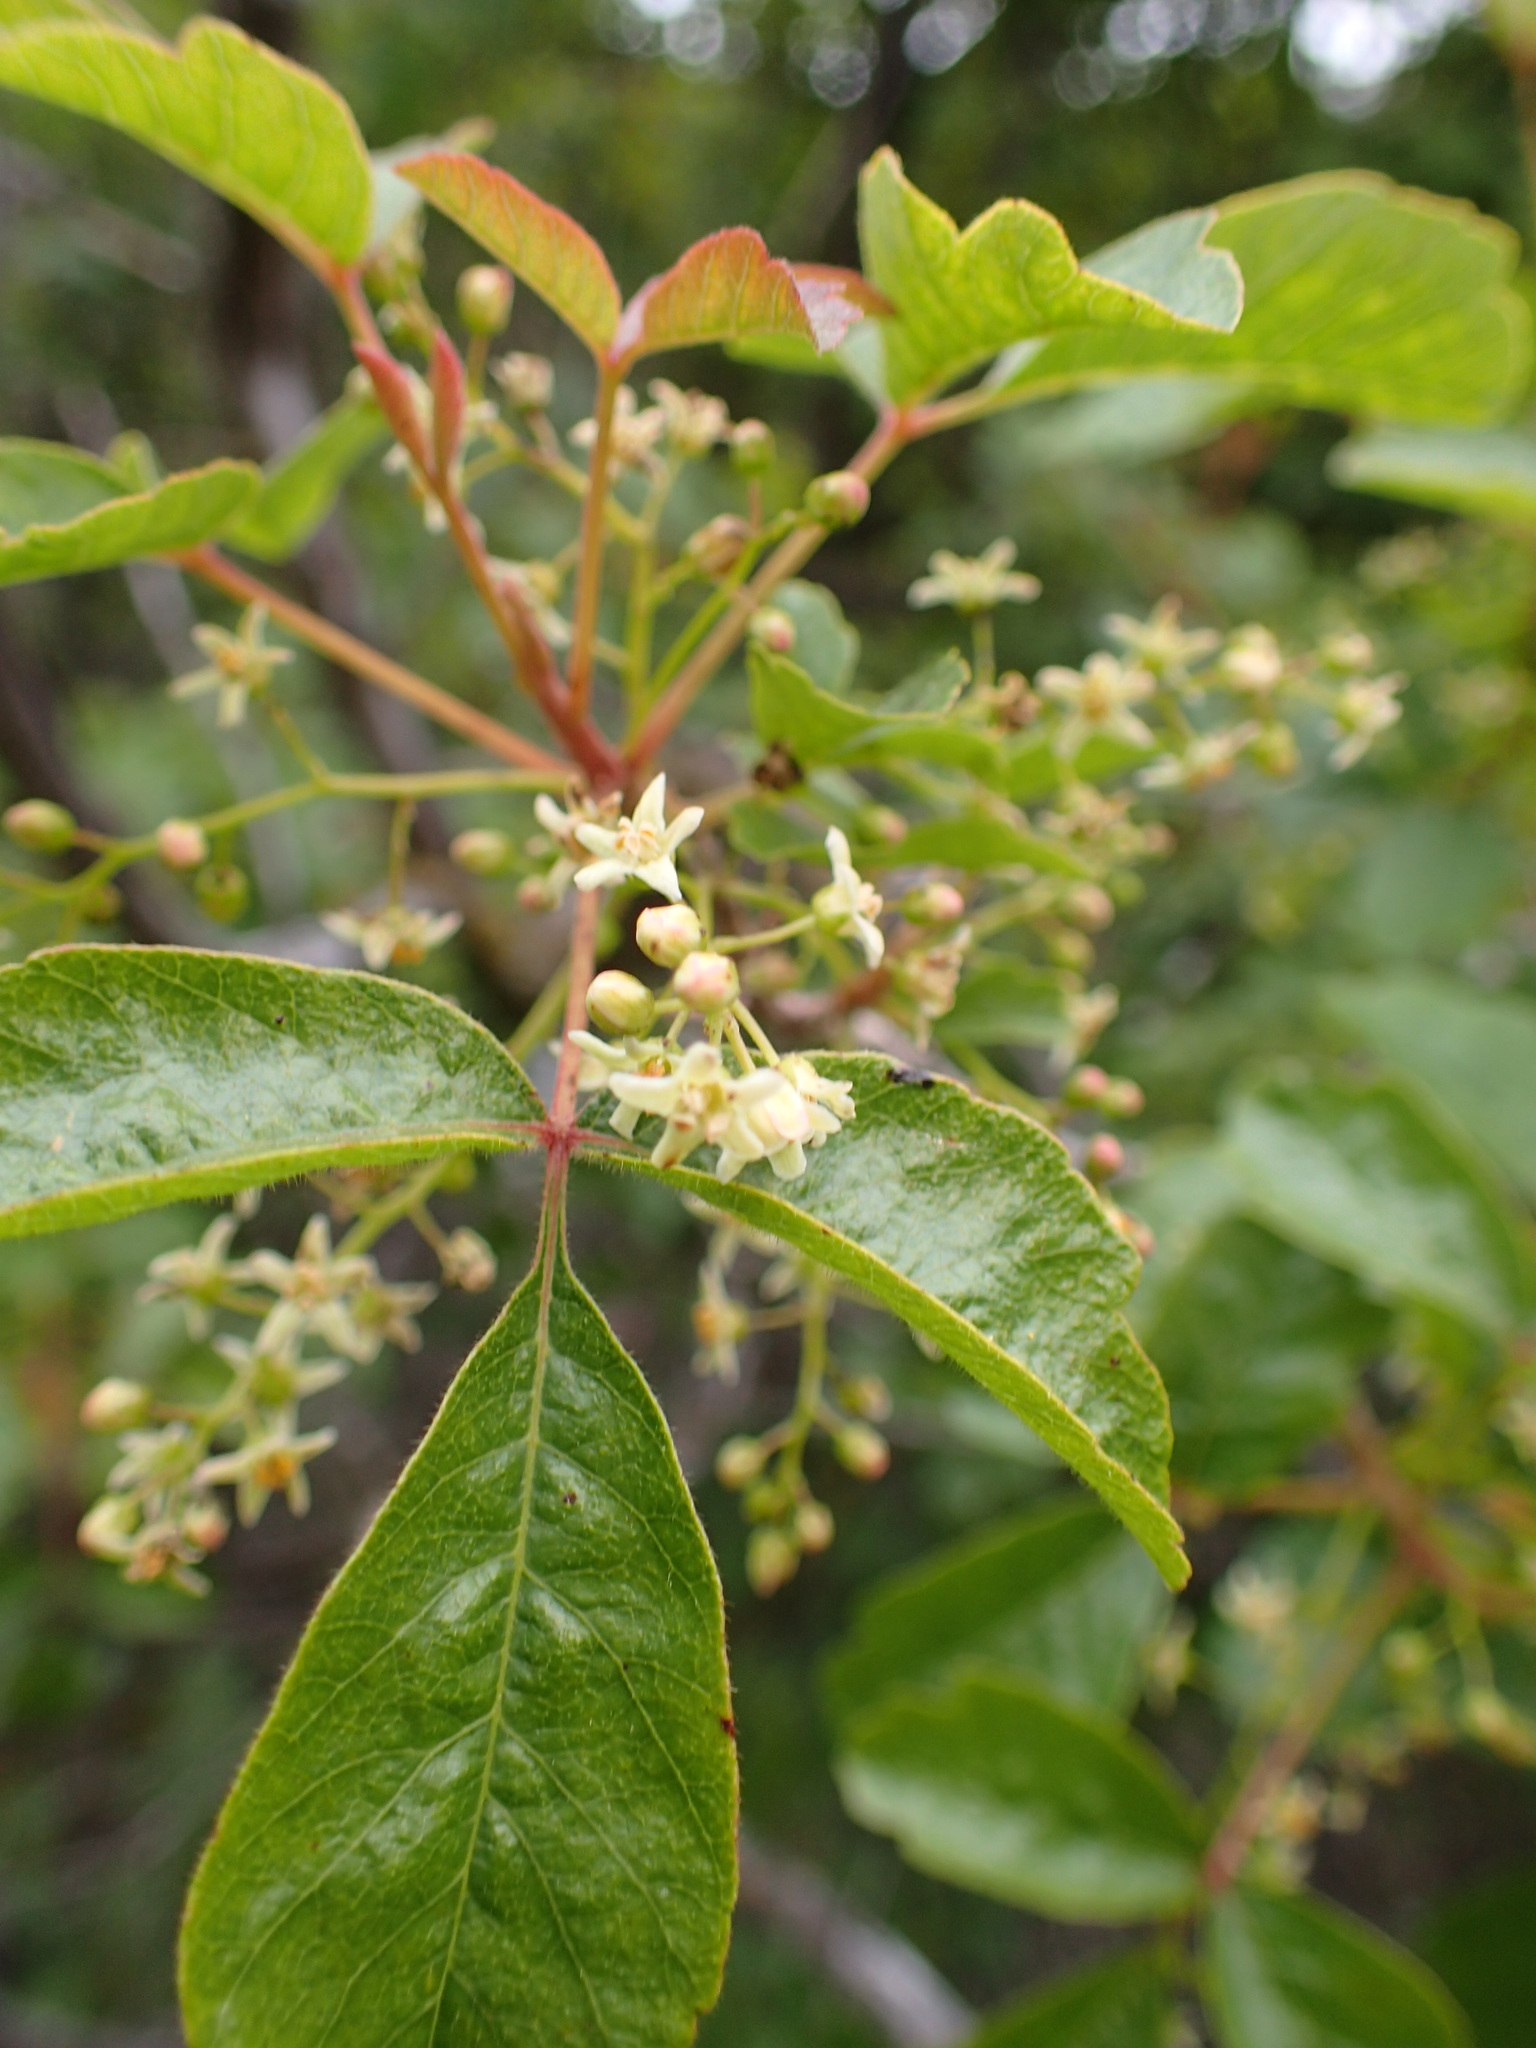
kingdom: Plantae
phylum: Tracheophyta
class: Magnoliopsida
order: Sapindales
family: Anacardiaceae
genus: Toxicodendron
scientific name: Toxicodendron diversilobum
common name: Pacific poison-oak
